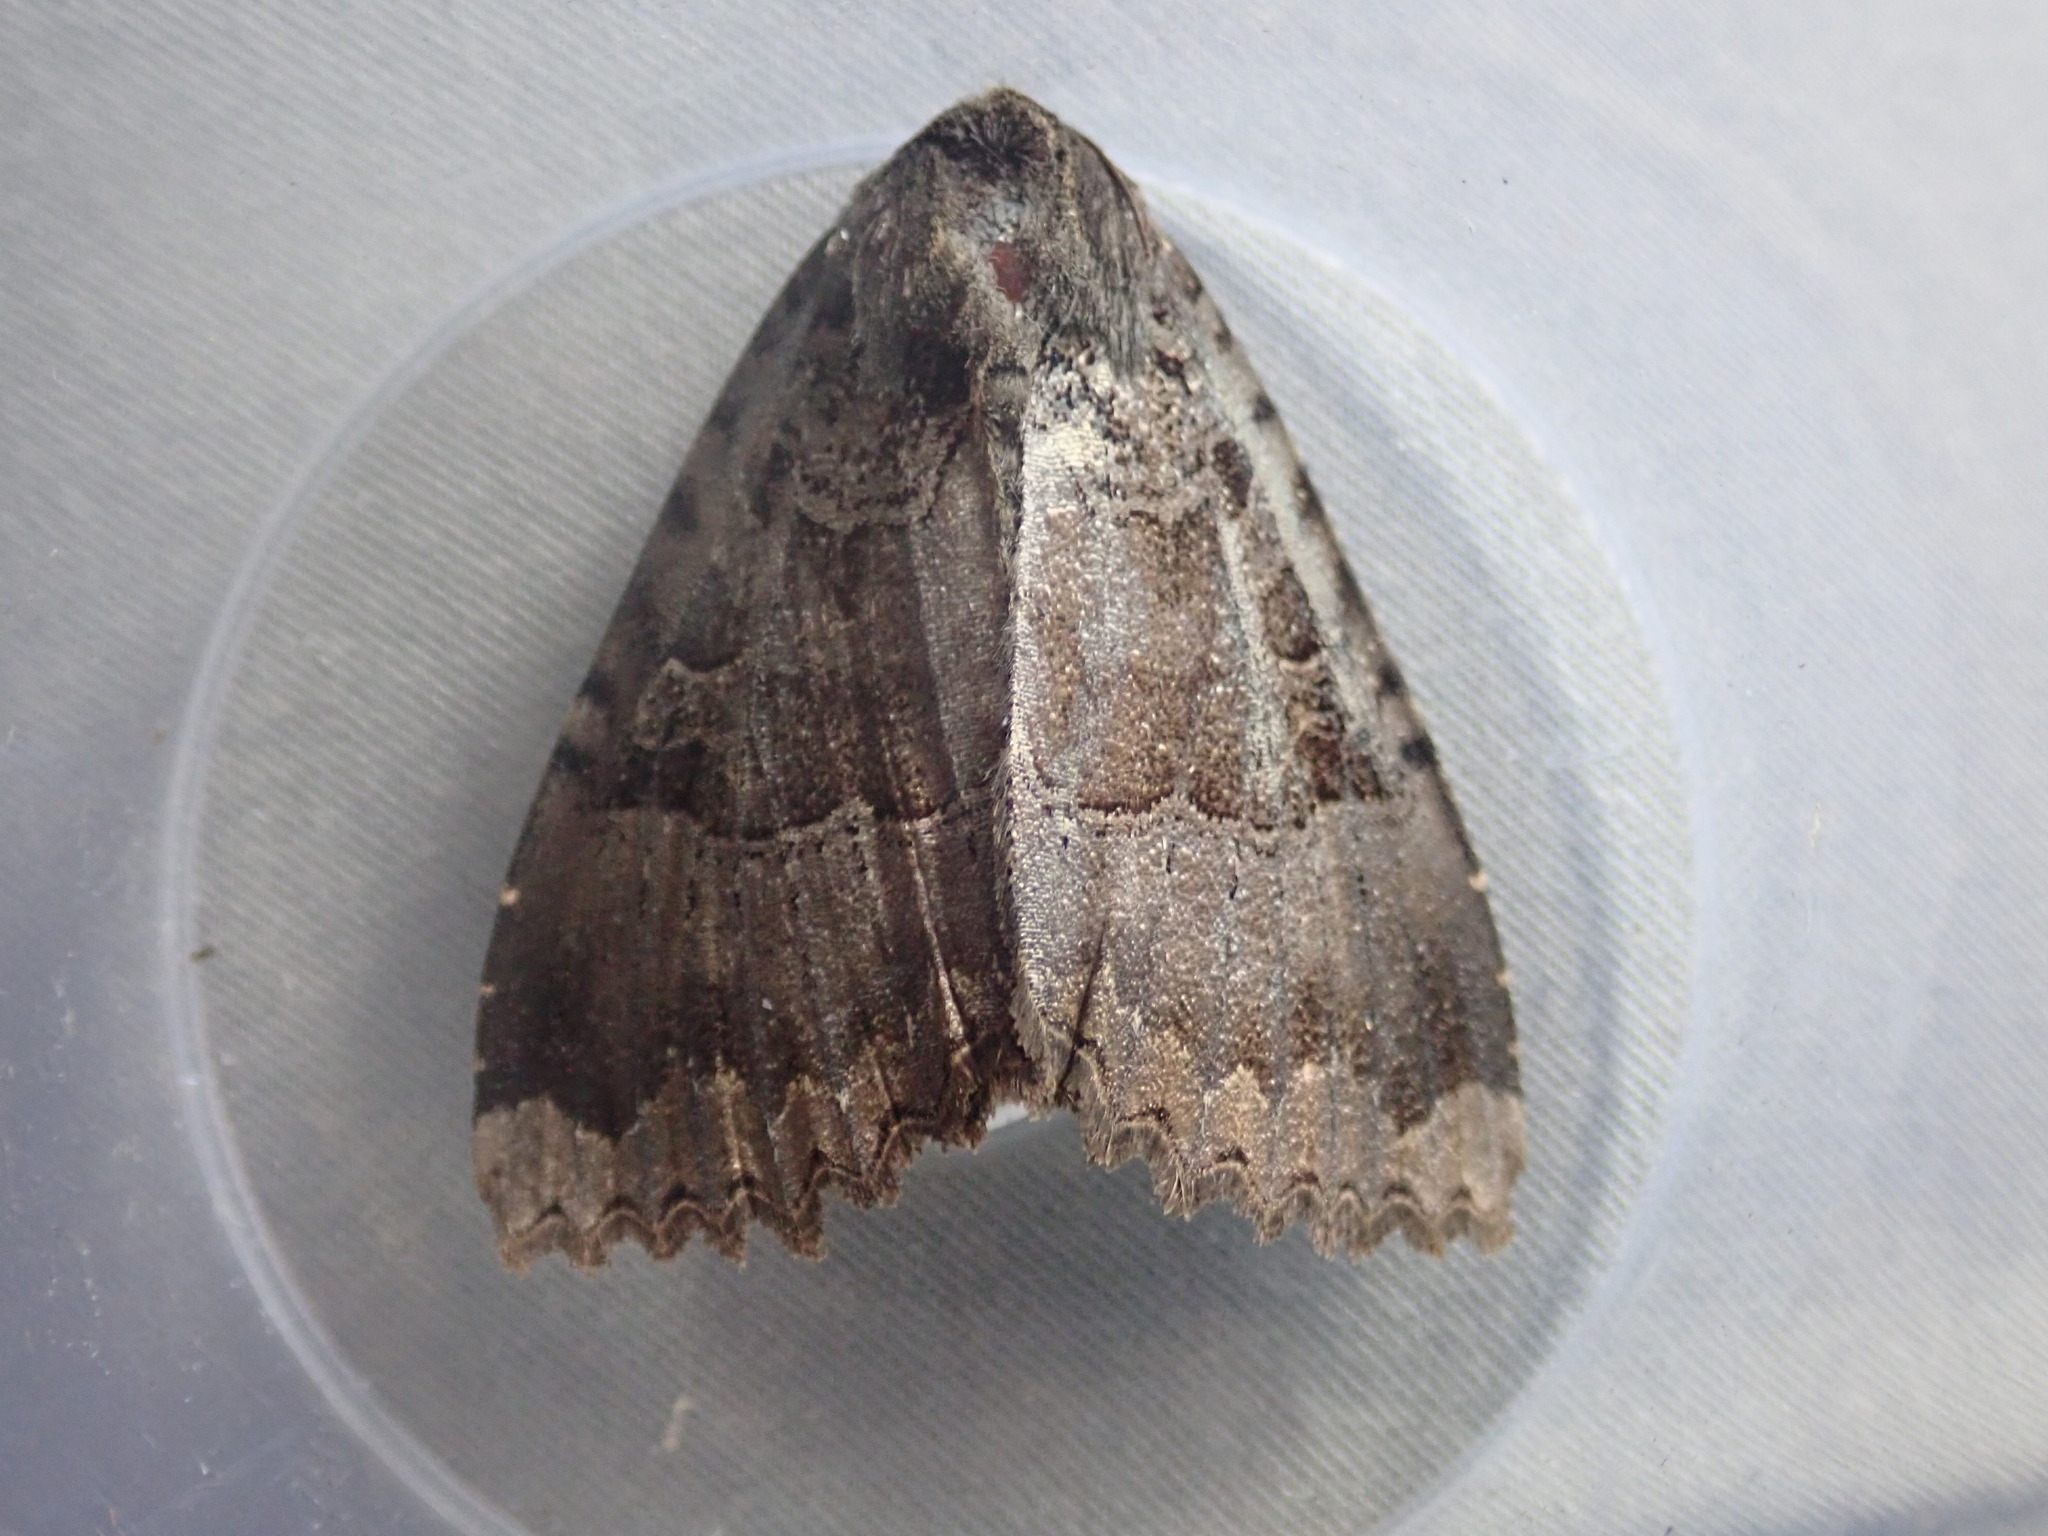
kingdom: Animalia
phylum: Arthropoda
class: Insecta
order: Lepidoptera
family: Noctuidae
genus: Mormo
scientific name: Mormo maura
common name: Old lady
